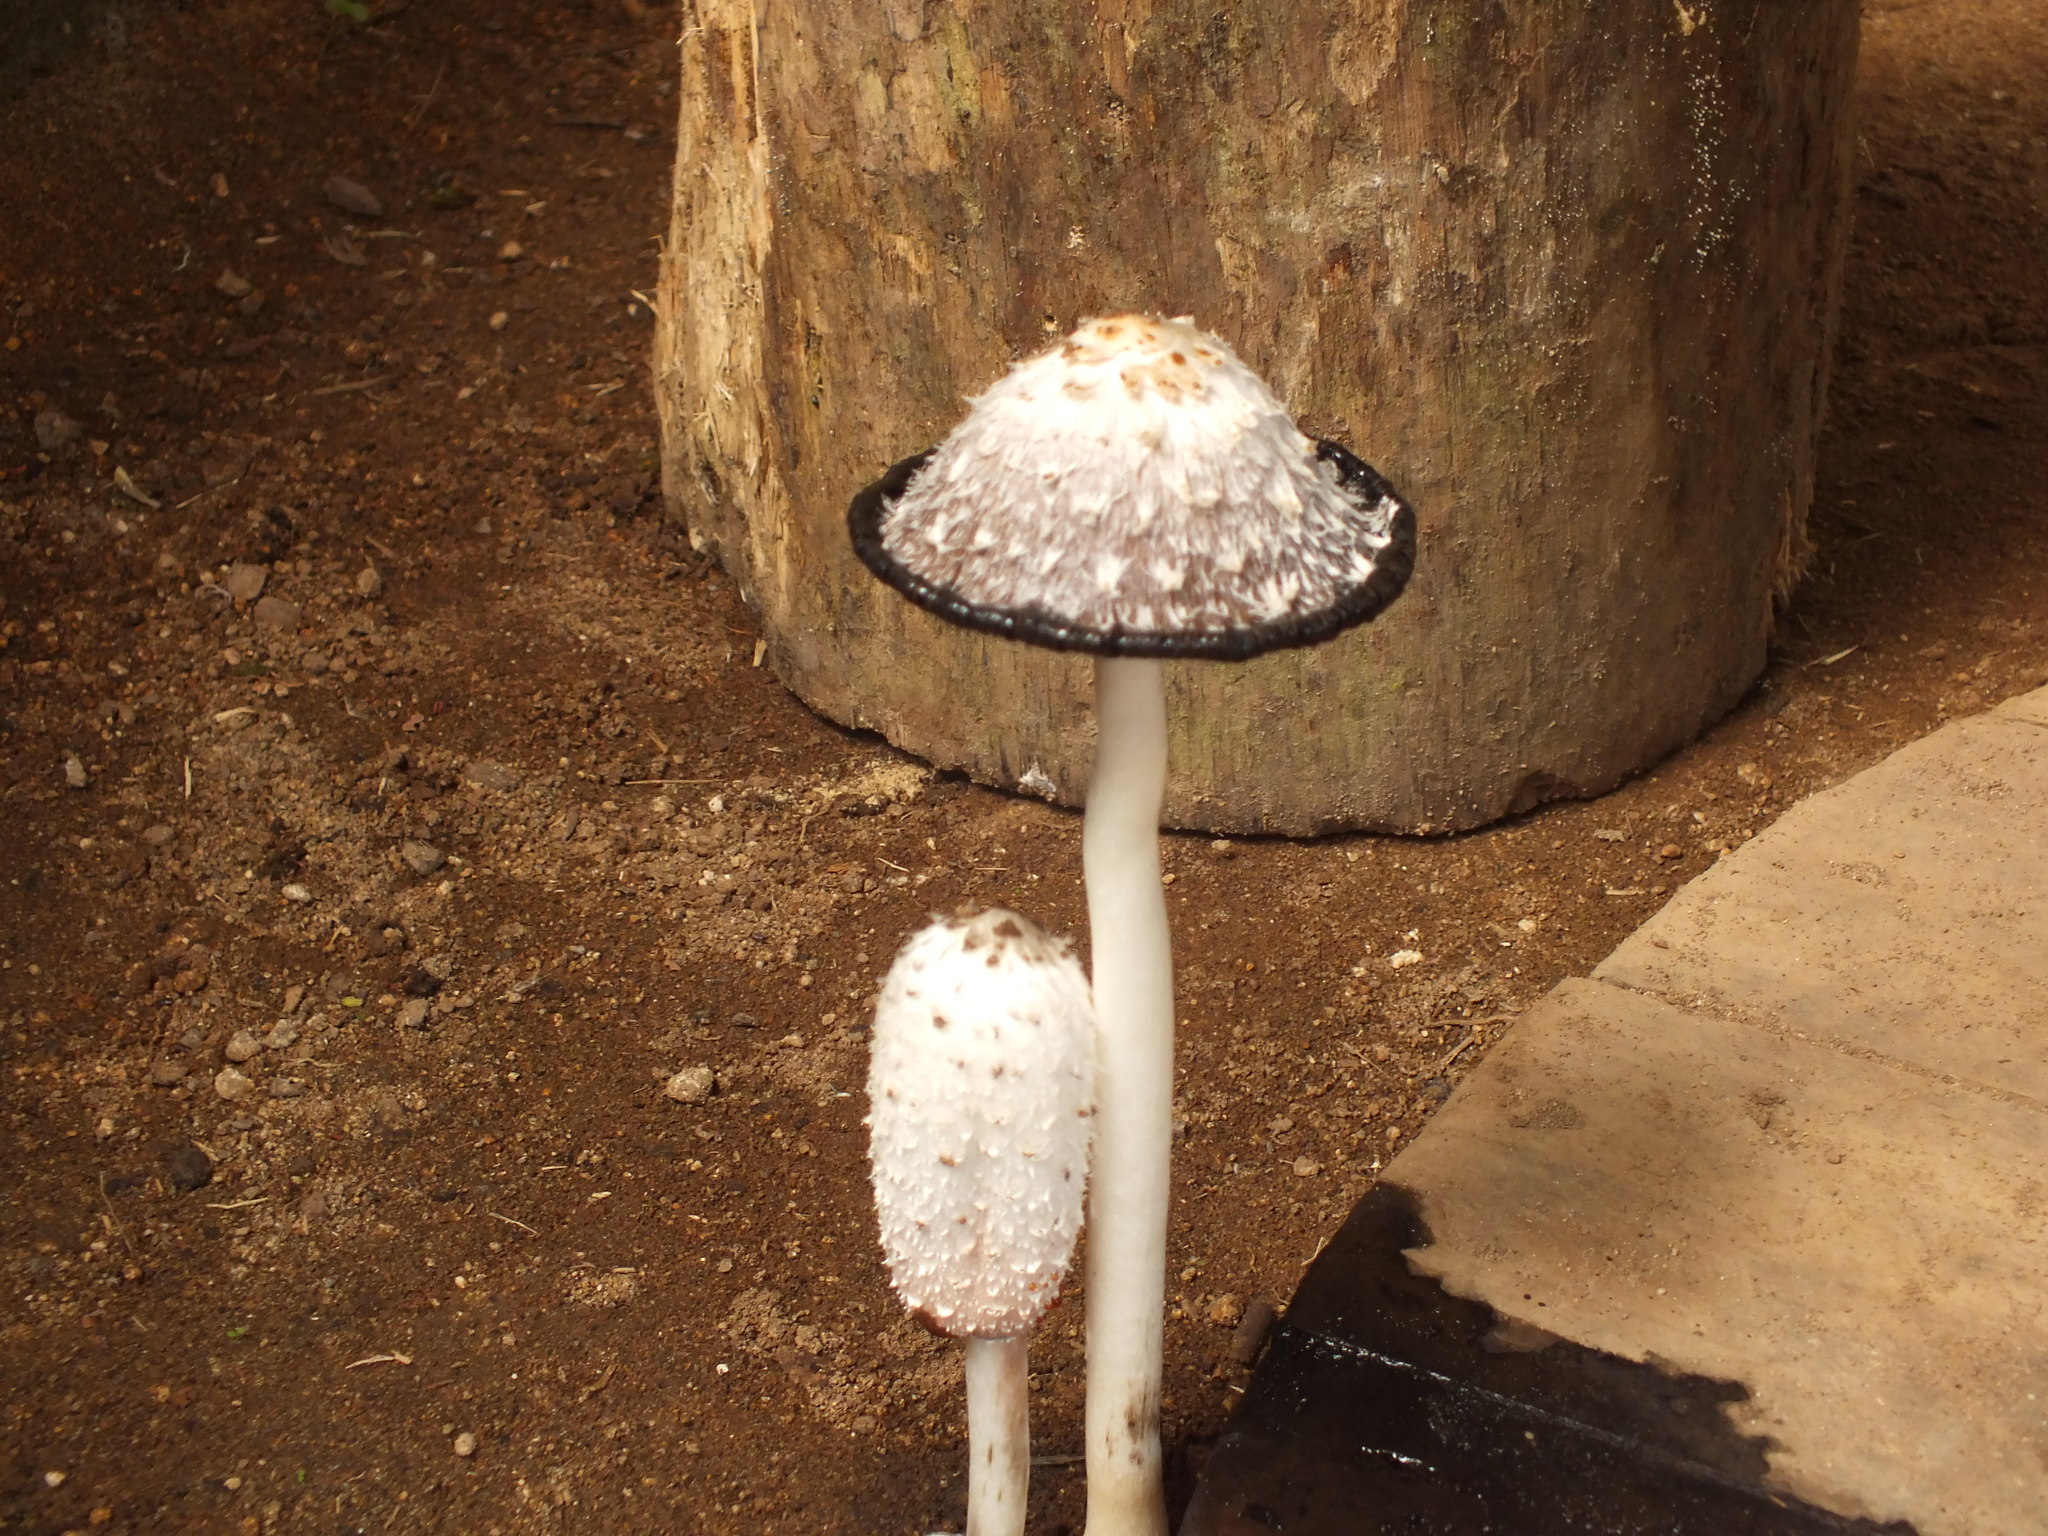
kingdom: Fungi
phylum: Basidiomycota
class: Agaricomycetes
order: Agaricales
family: Agaricaceae
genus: Coprinus
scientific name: Coprinus comatus
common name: Lawyer's wig
